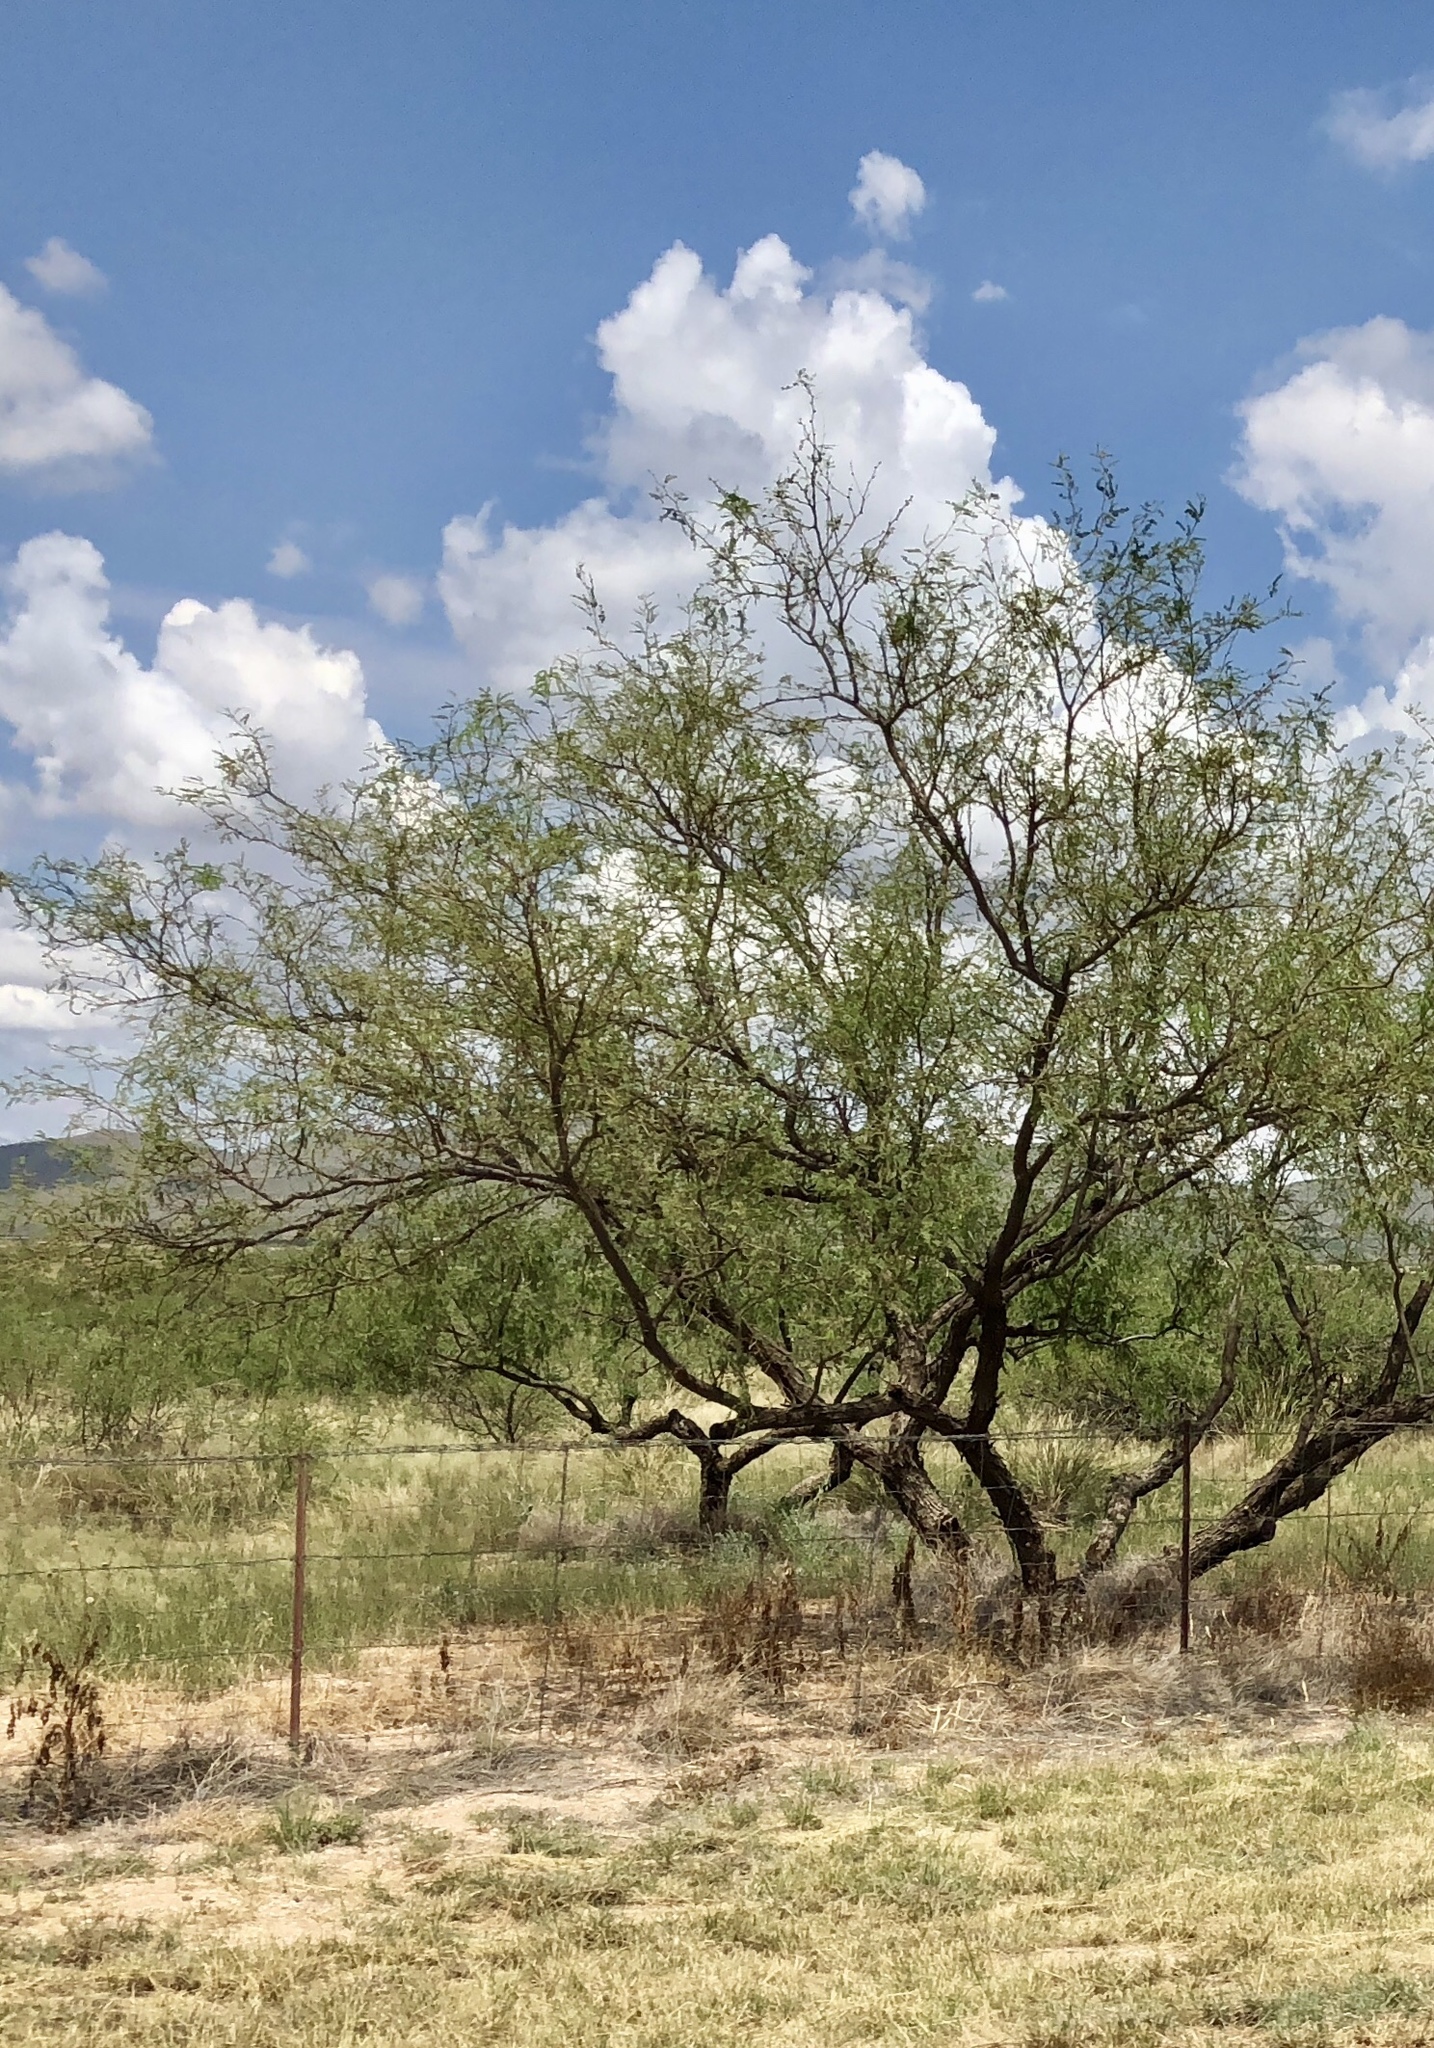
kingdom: Plantae
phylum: Tracheophyta
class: Magnoliopsida
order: Fabales
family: Fabaceae
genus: Prosopis
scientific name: Prosopis glandulosa
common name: Honey mesquite
